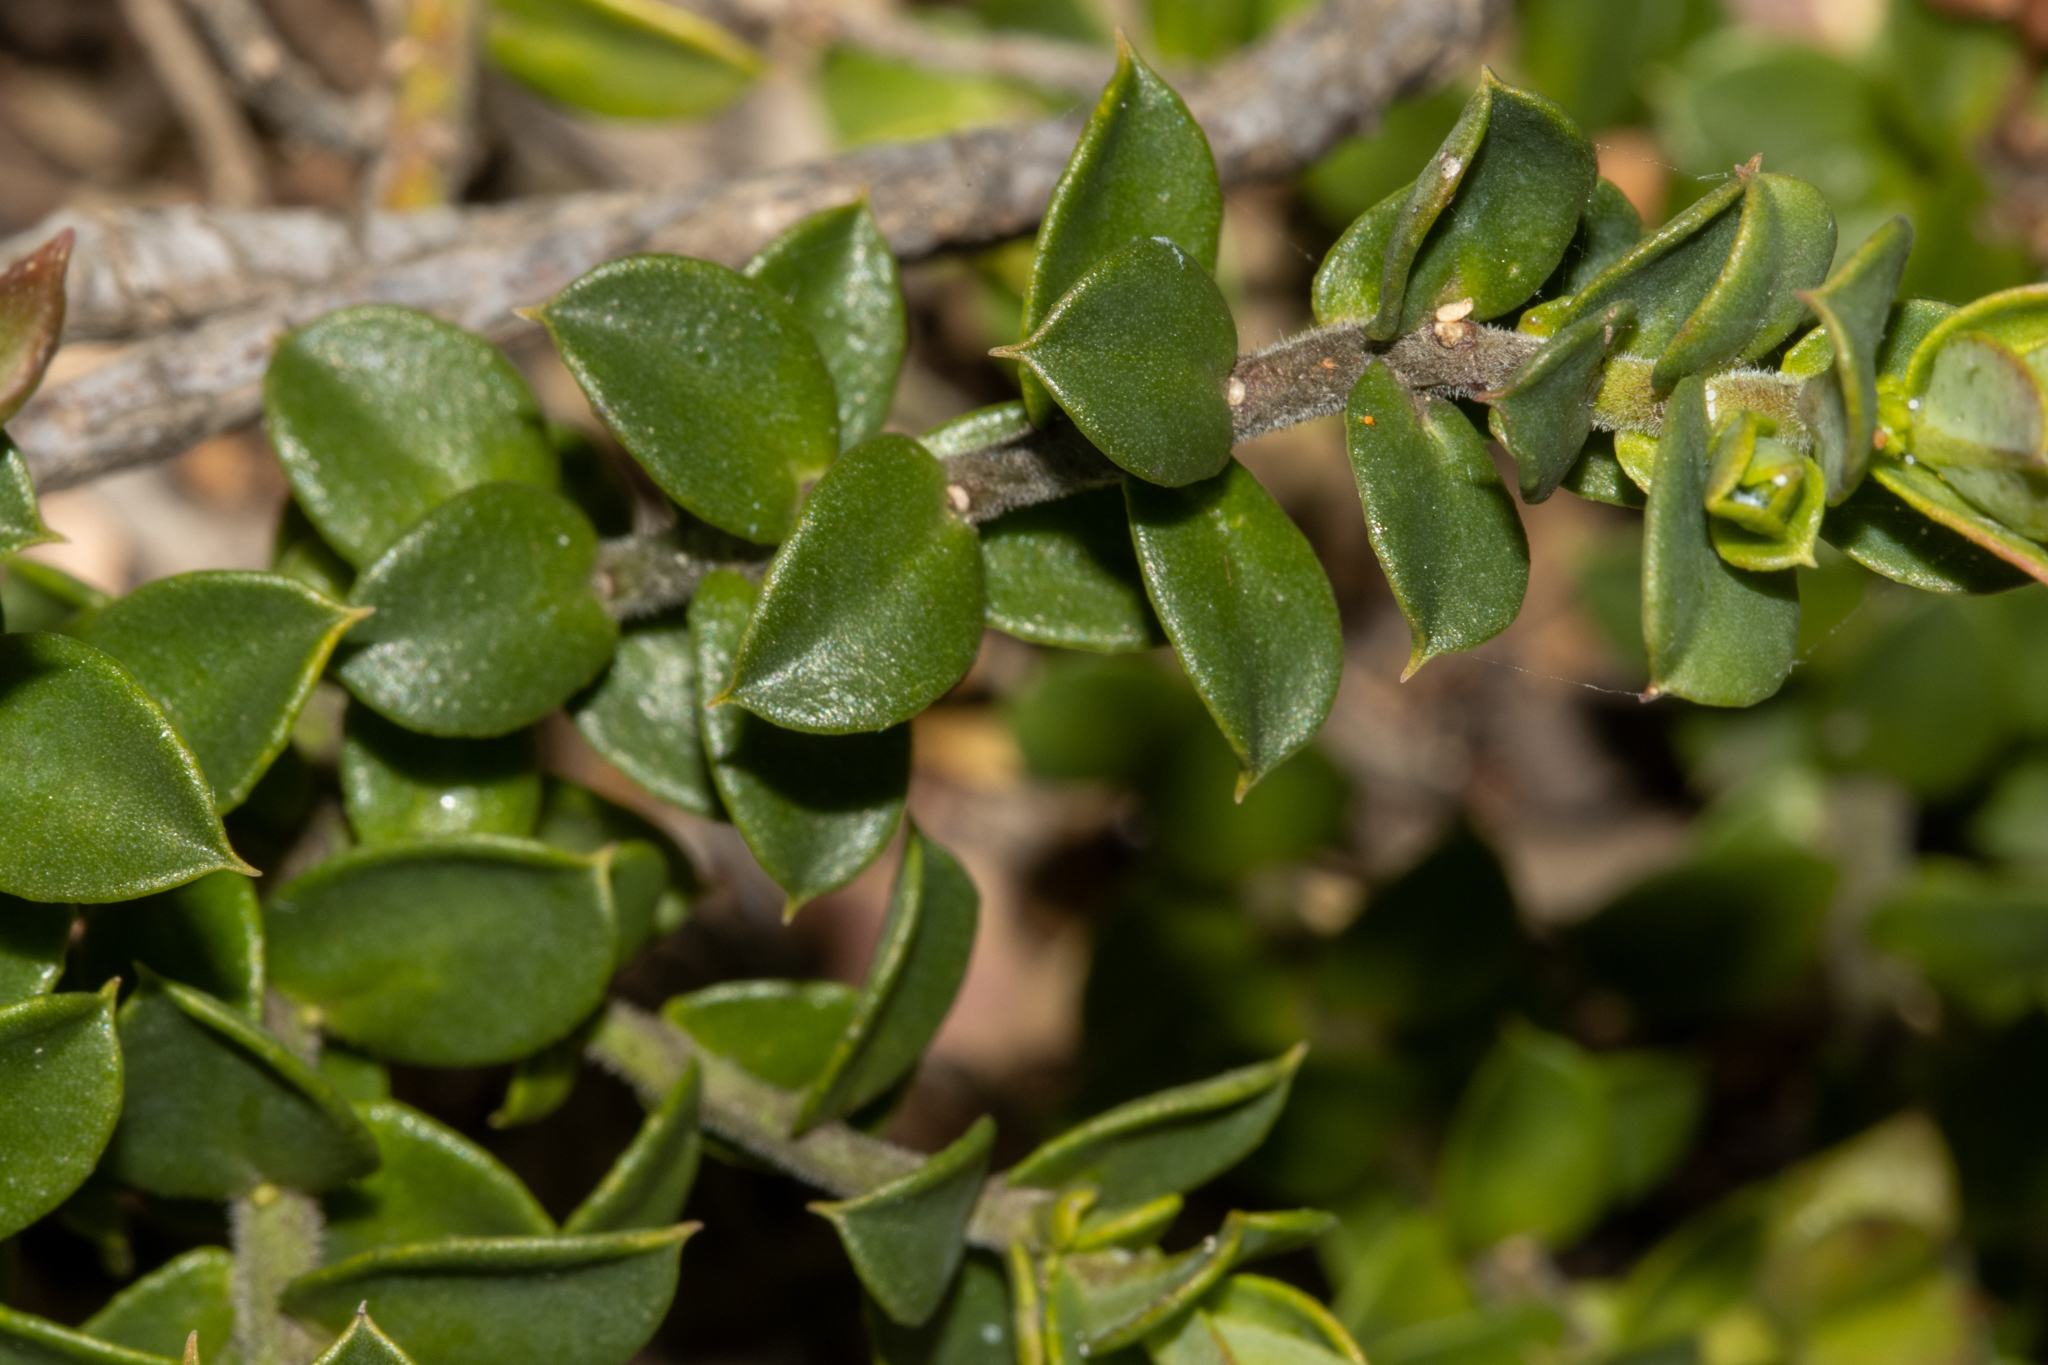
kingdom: Plantae
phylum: Tracheophyta
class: Magnoliopsida
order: Sapindales
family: Rutaceae
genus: Philotheca
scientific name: Philotheca buxifolia
